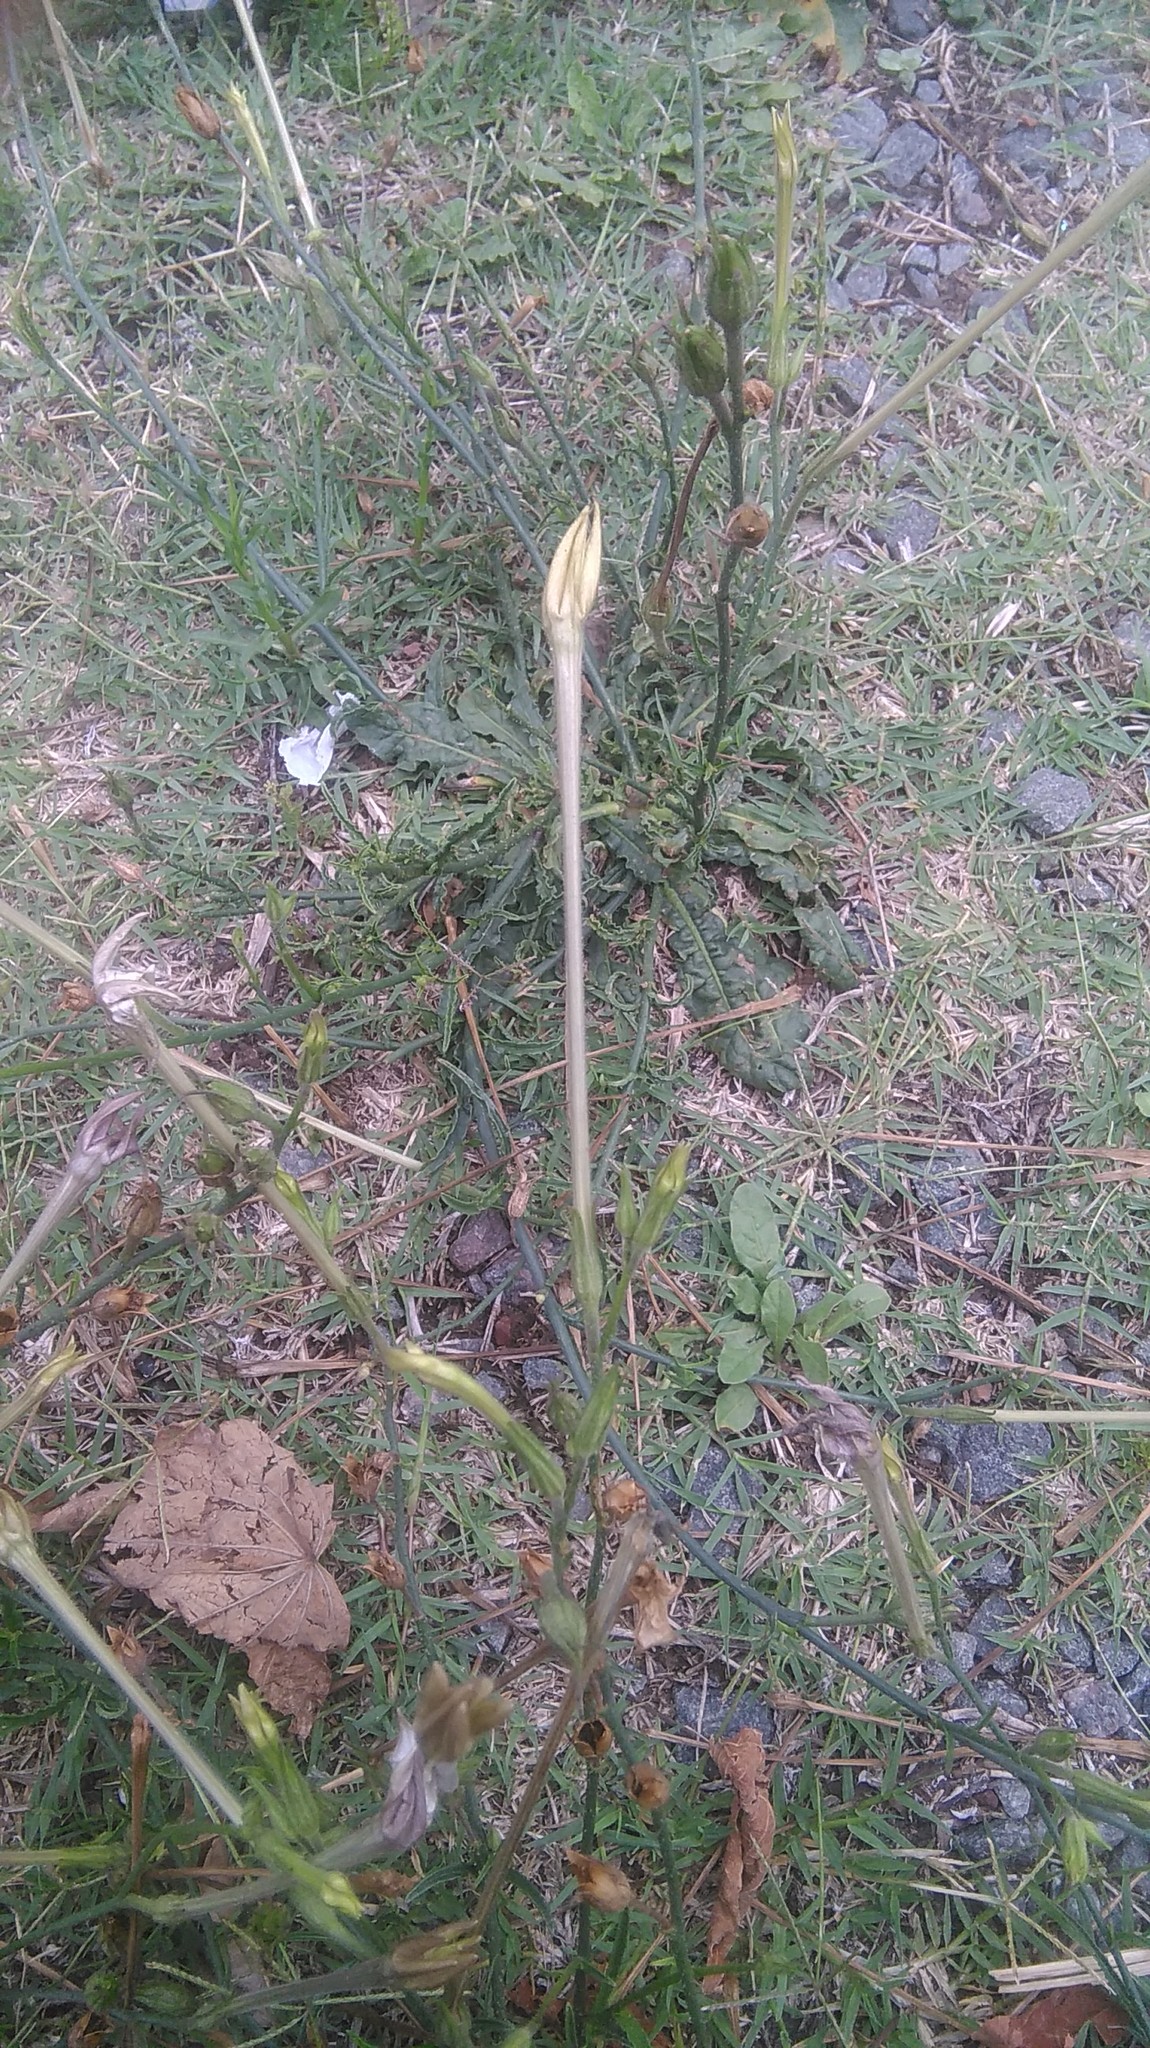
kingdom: Plantae
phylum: Tracheophyta
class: Magnoliopsida
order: Solanales
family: Solanaceae
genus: Nicotiana
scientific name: Nicotiana longiflora
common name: Long-flowered tobacco
